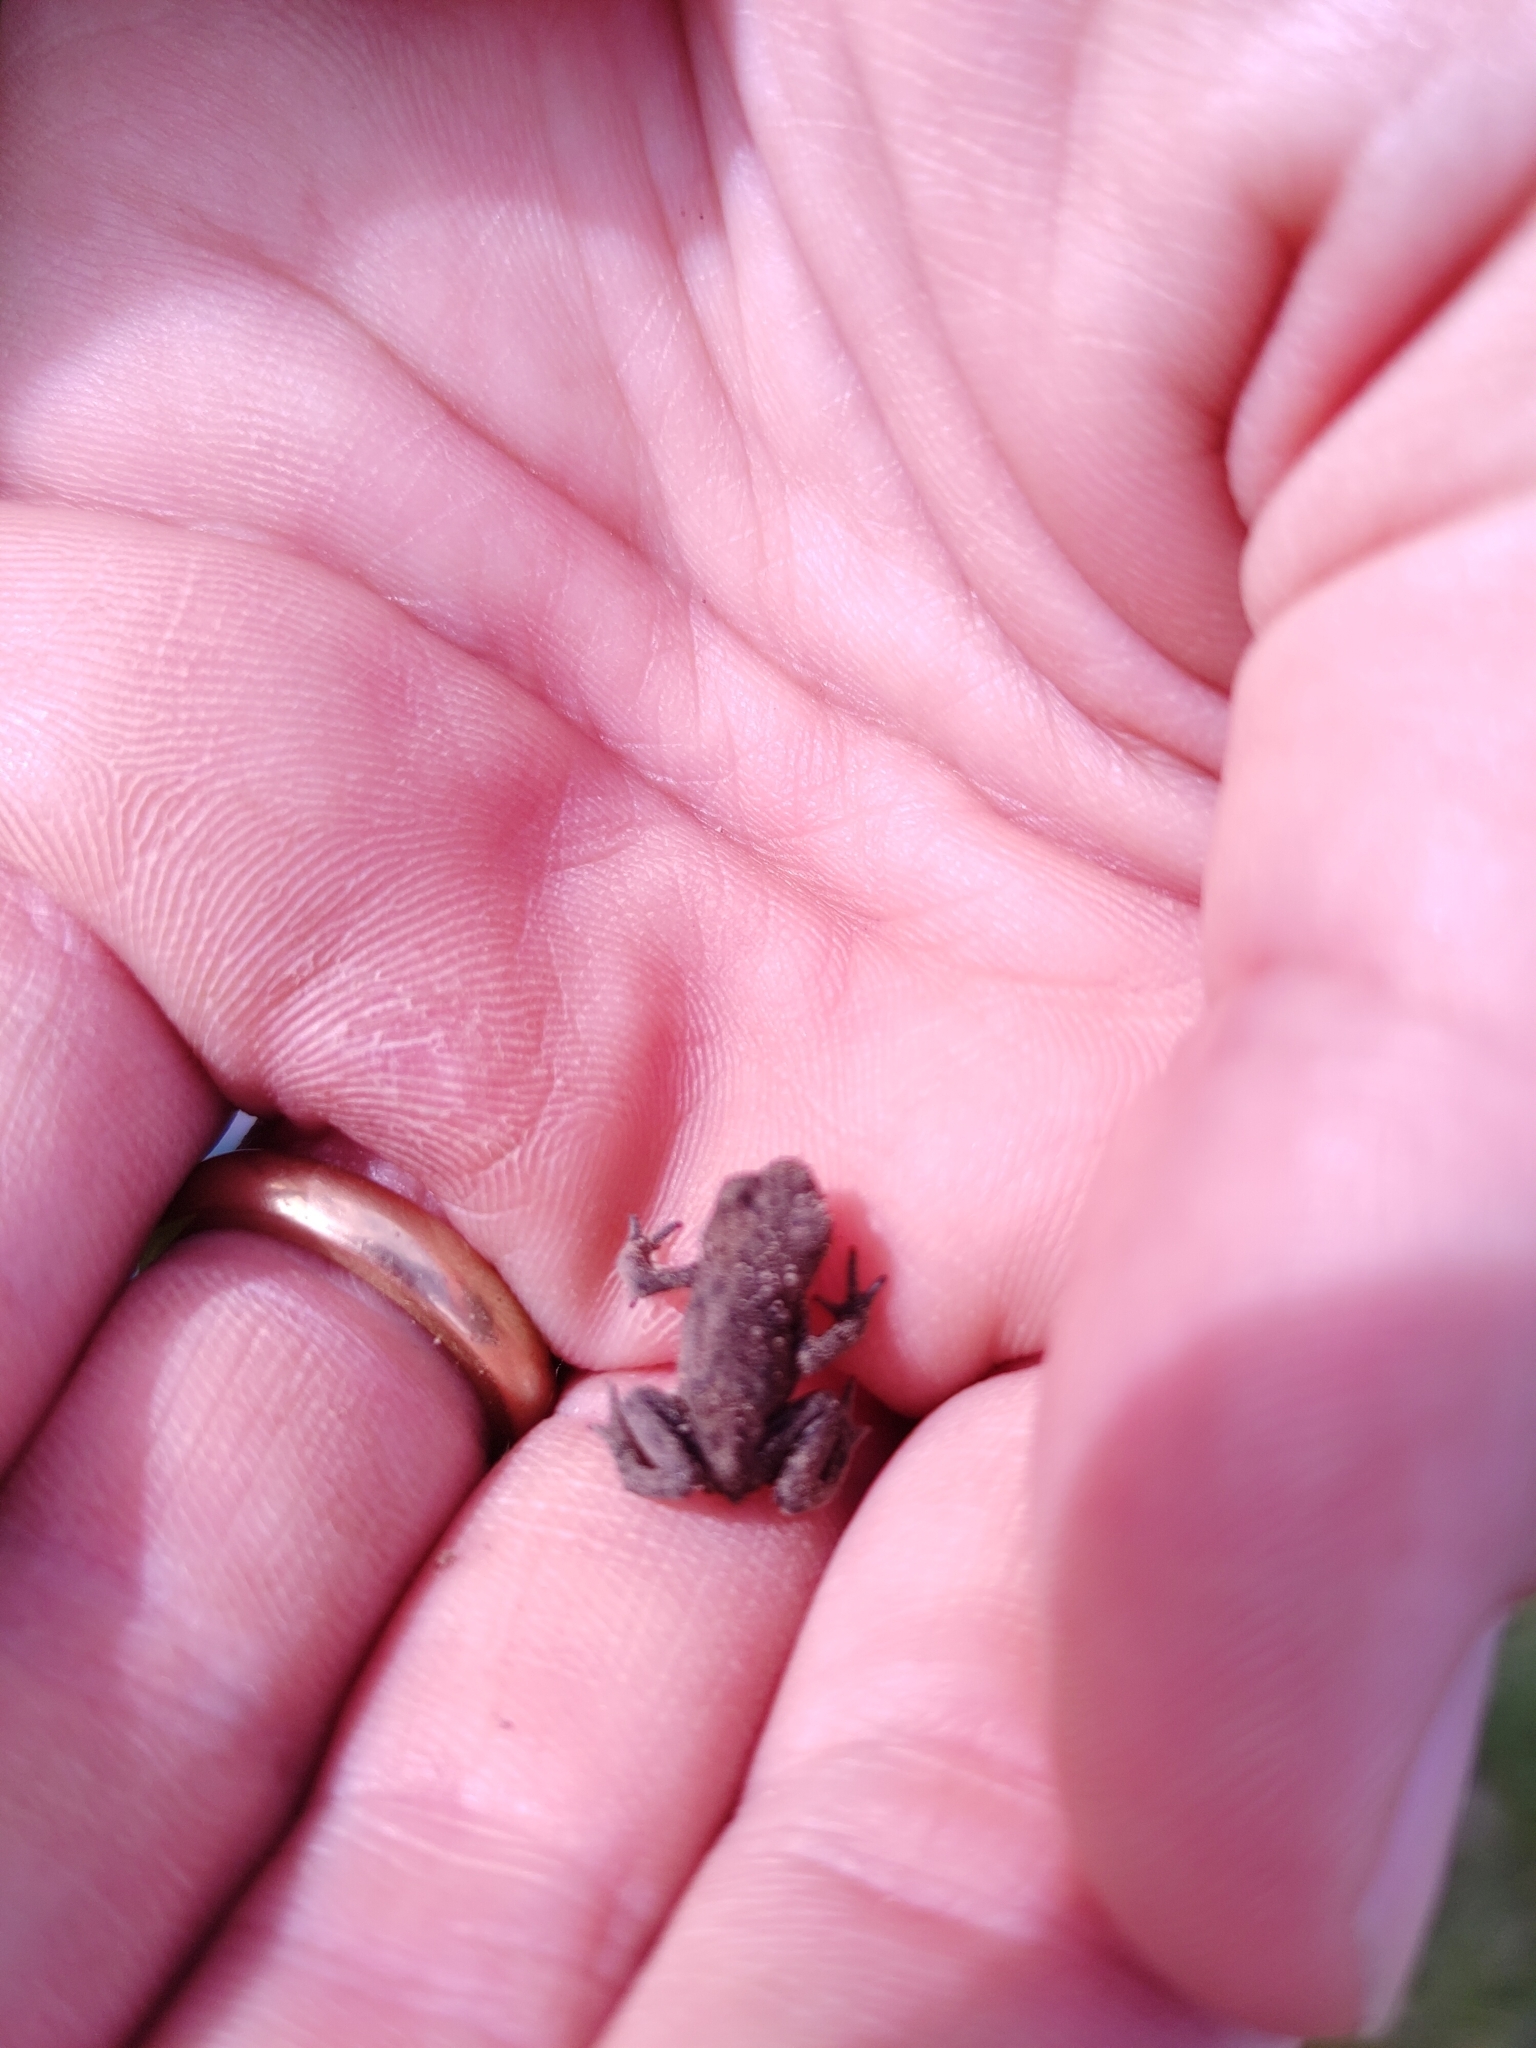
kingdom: Animalia
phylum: Chordata
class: Amphibia
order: Anura
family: Bufonidae
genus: Bufo
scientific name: Bufo bufo
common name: Common toad
